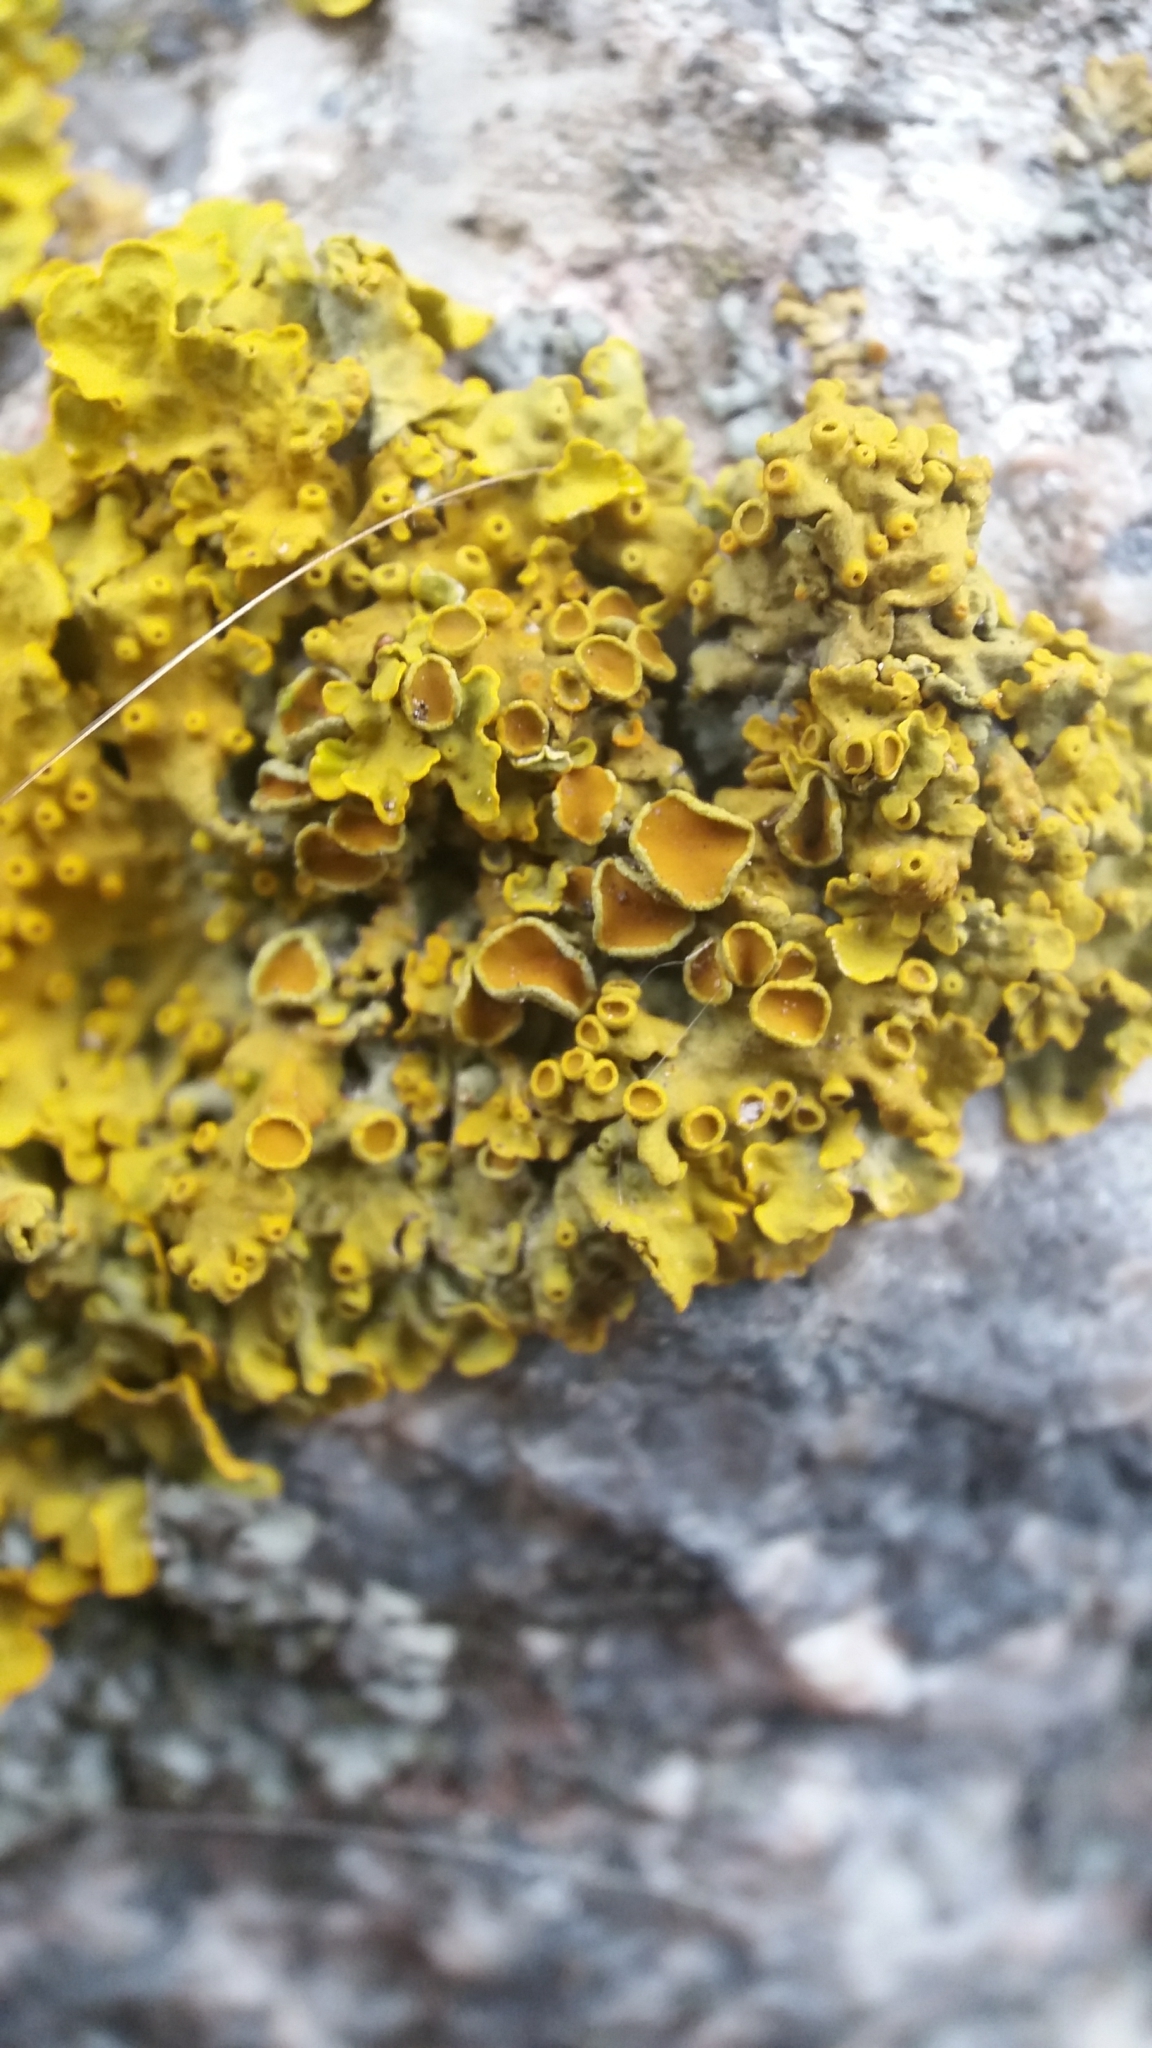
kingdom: Fungi
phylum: Ascomycota
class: Lecanoromycetes
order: Teloschistales
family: Teloschistaceae
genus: Xanthoria
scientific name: Xanthoria parietina
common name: Common orange lichen
